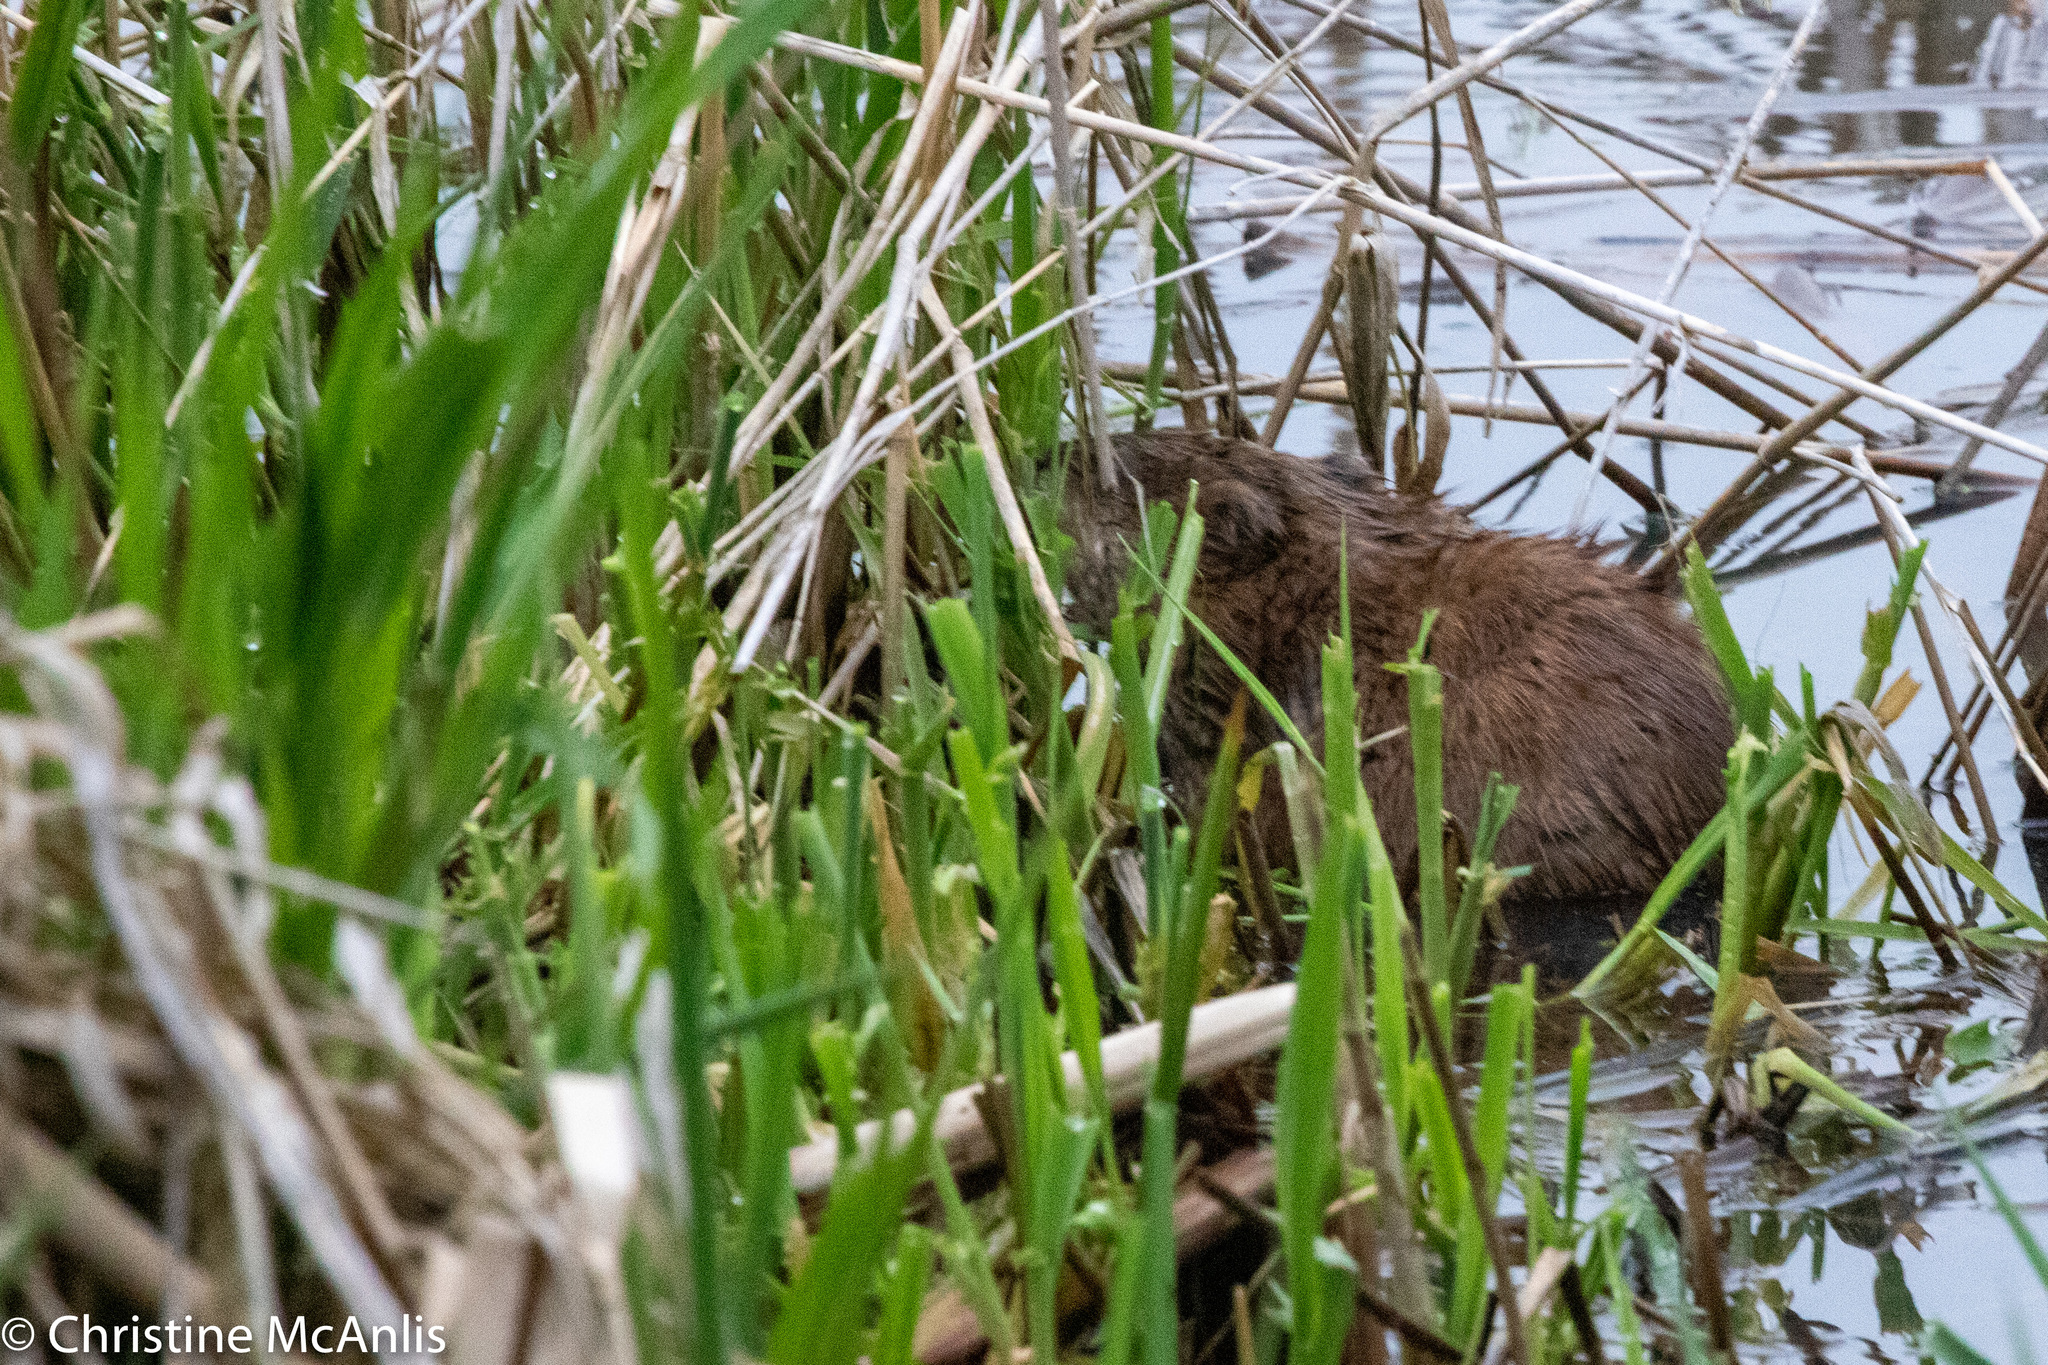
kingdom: Animalia
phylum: Chordata
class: Mammalia
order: Rodentia
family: Cricetidae
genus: Ondatra
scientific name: Ondatra zibethicus
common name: Muskrat
